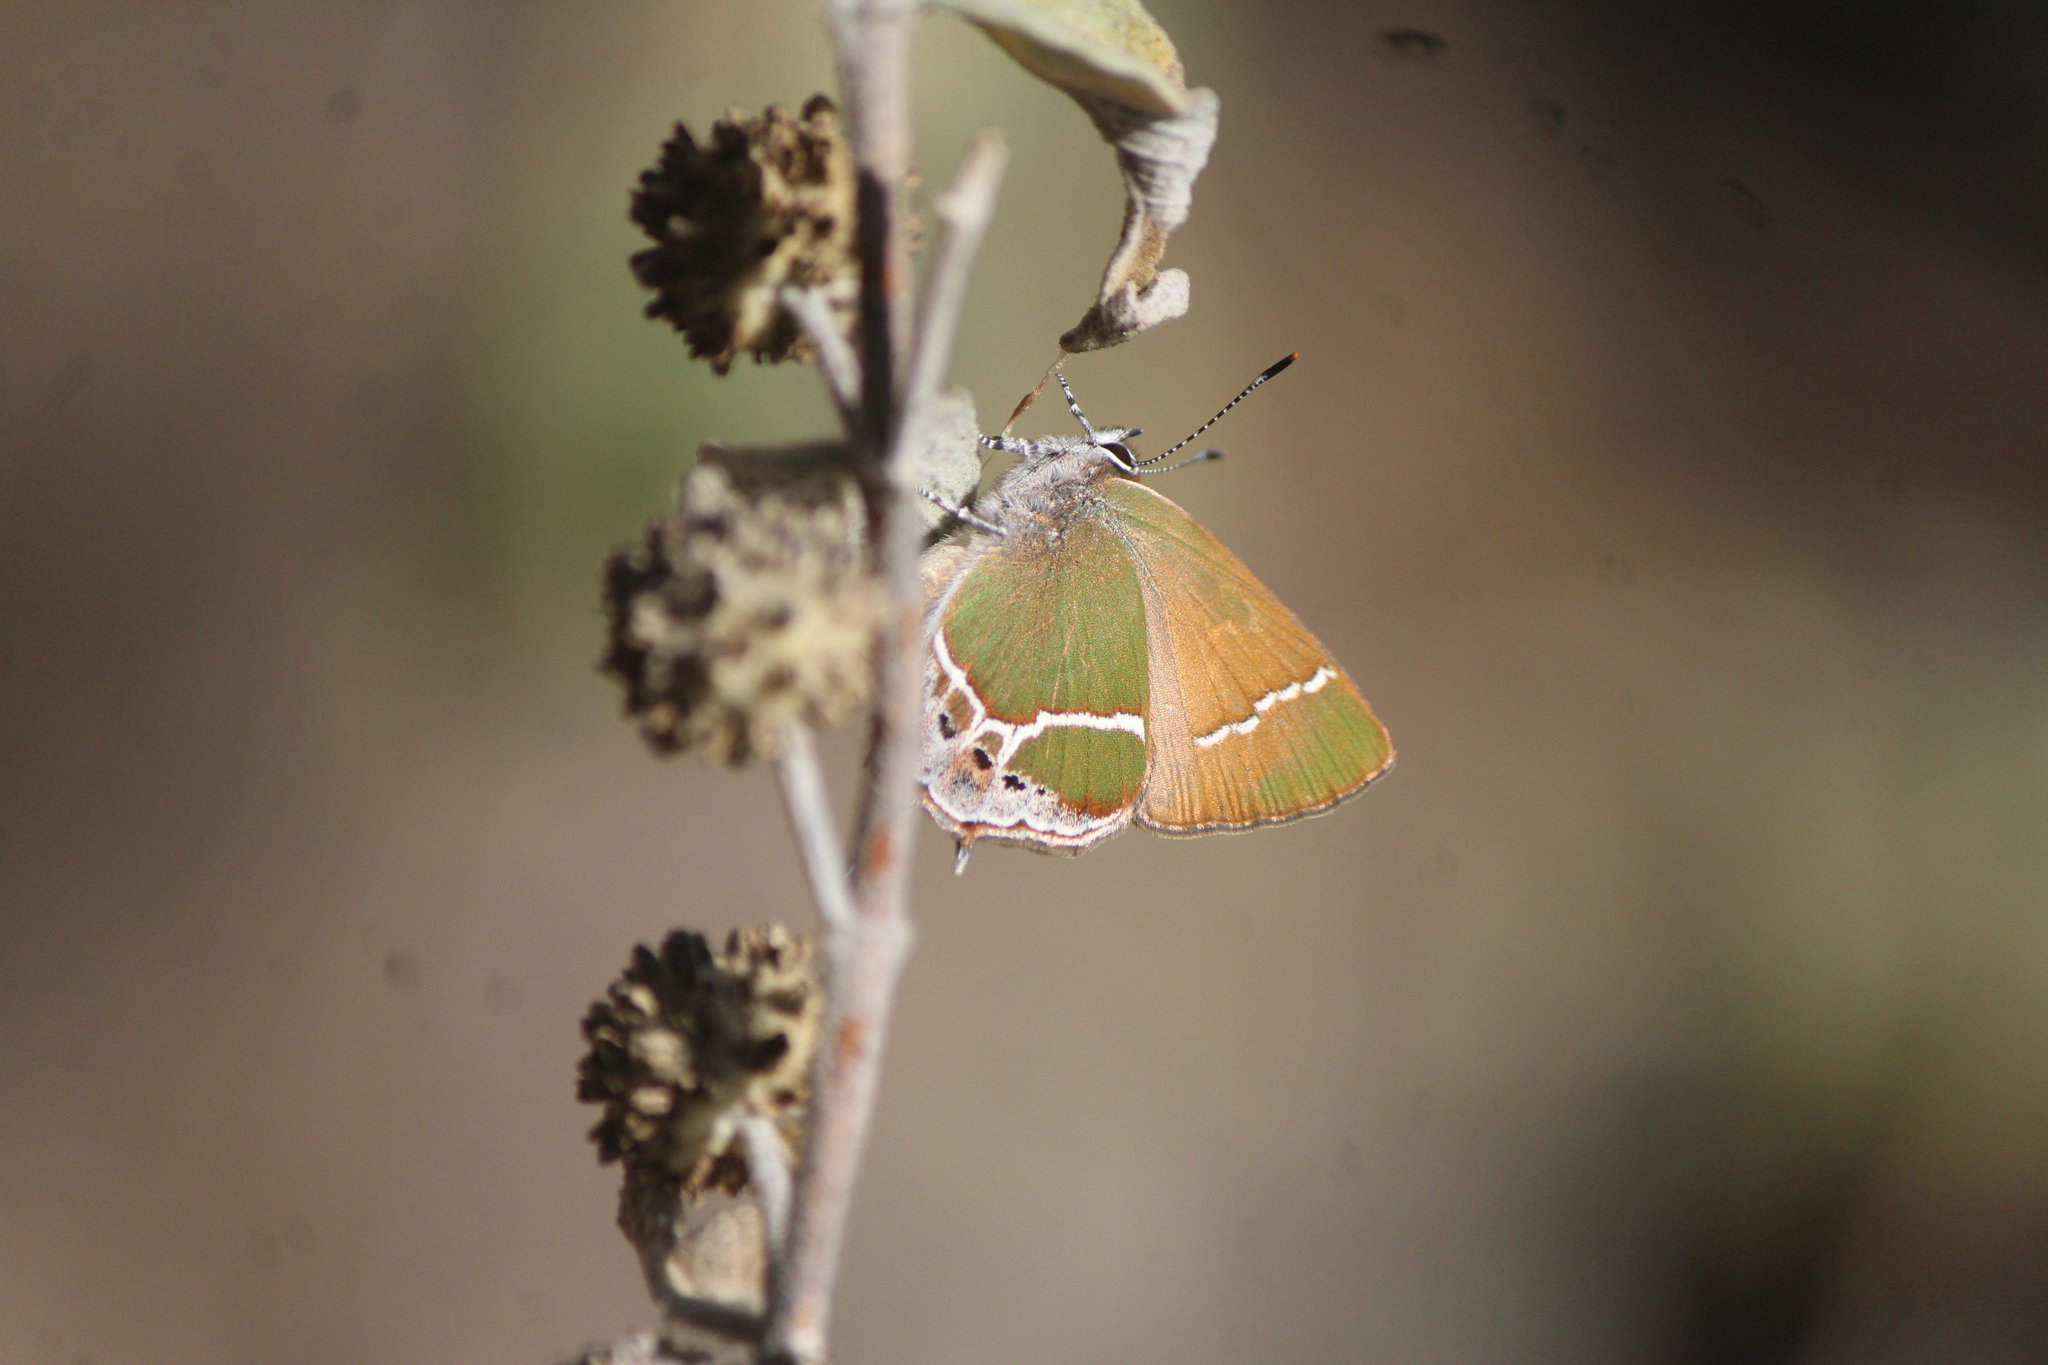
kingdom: Animalia
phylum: Arthropoda
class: Insecta
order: Lepidoptera
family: Lycaenidae
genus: Xamia
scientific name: Xamia xami
